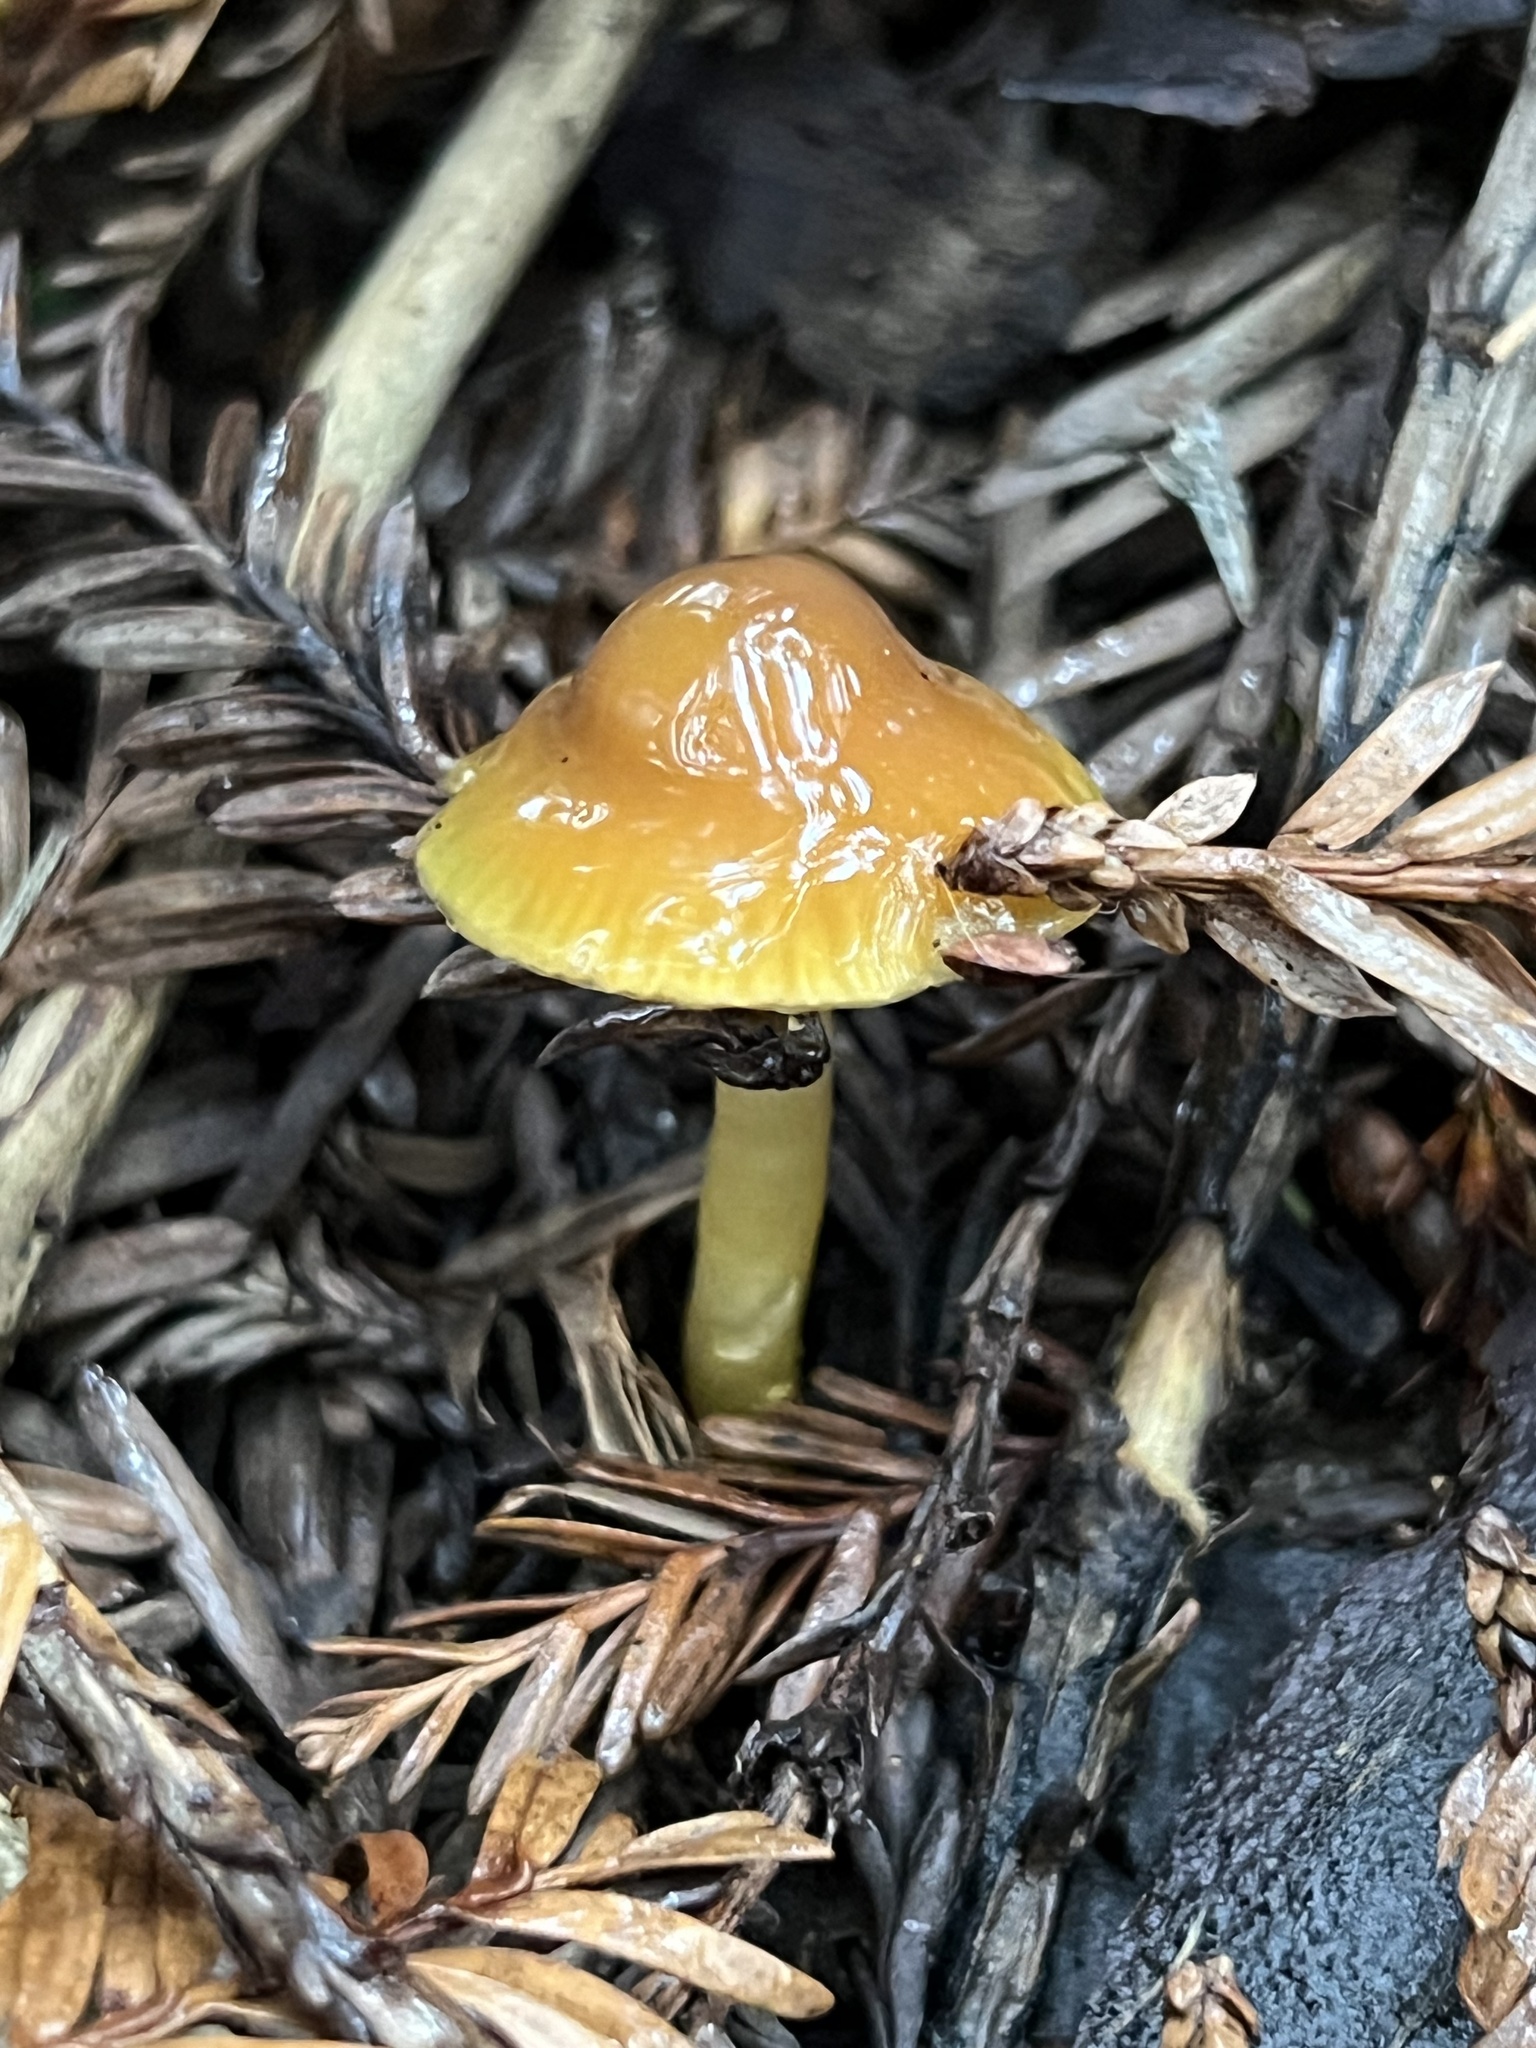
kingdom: Fungi
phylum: Basidiomycota
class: Agaricomycetes
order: Agaricales
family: Hygrophoraceae
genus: Gliophorus
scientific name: Gliophorus psittacinus
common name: Parrot wax-cap
